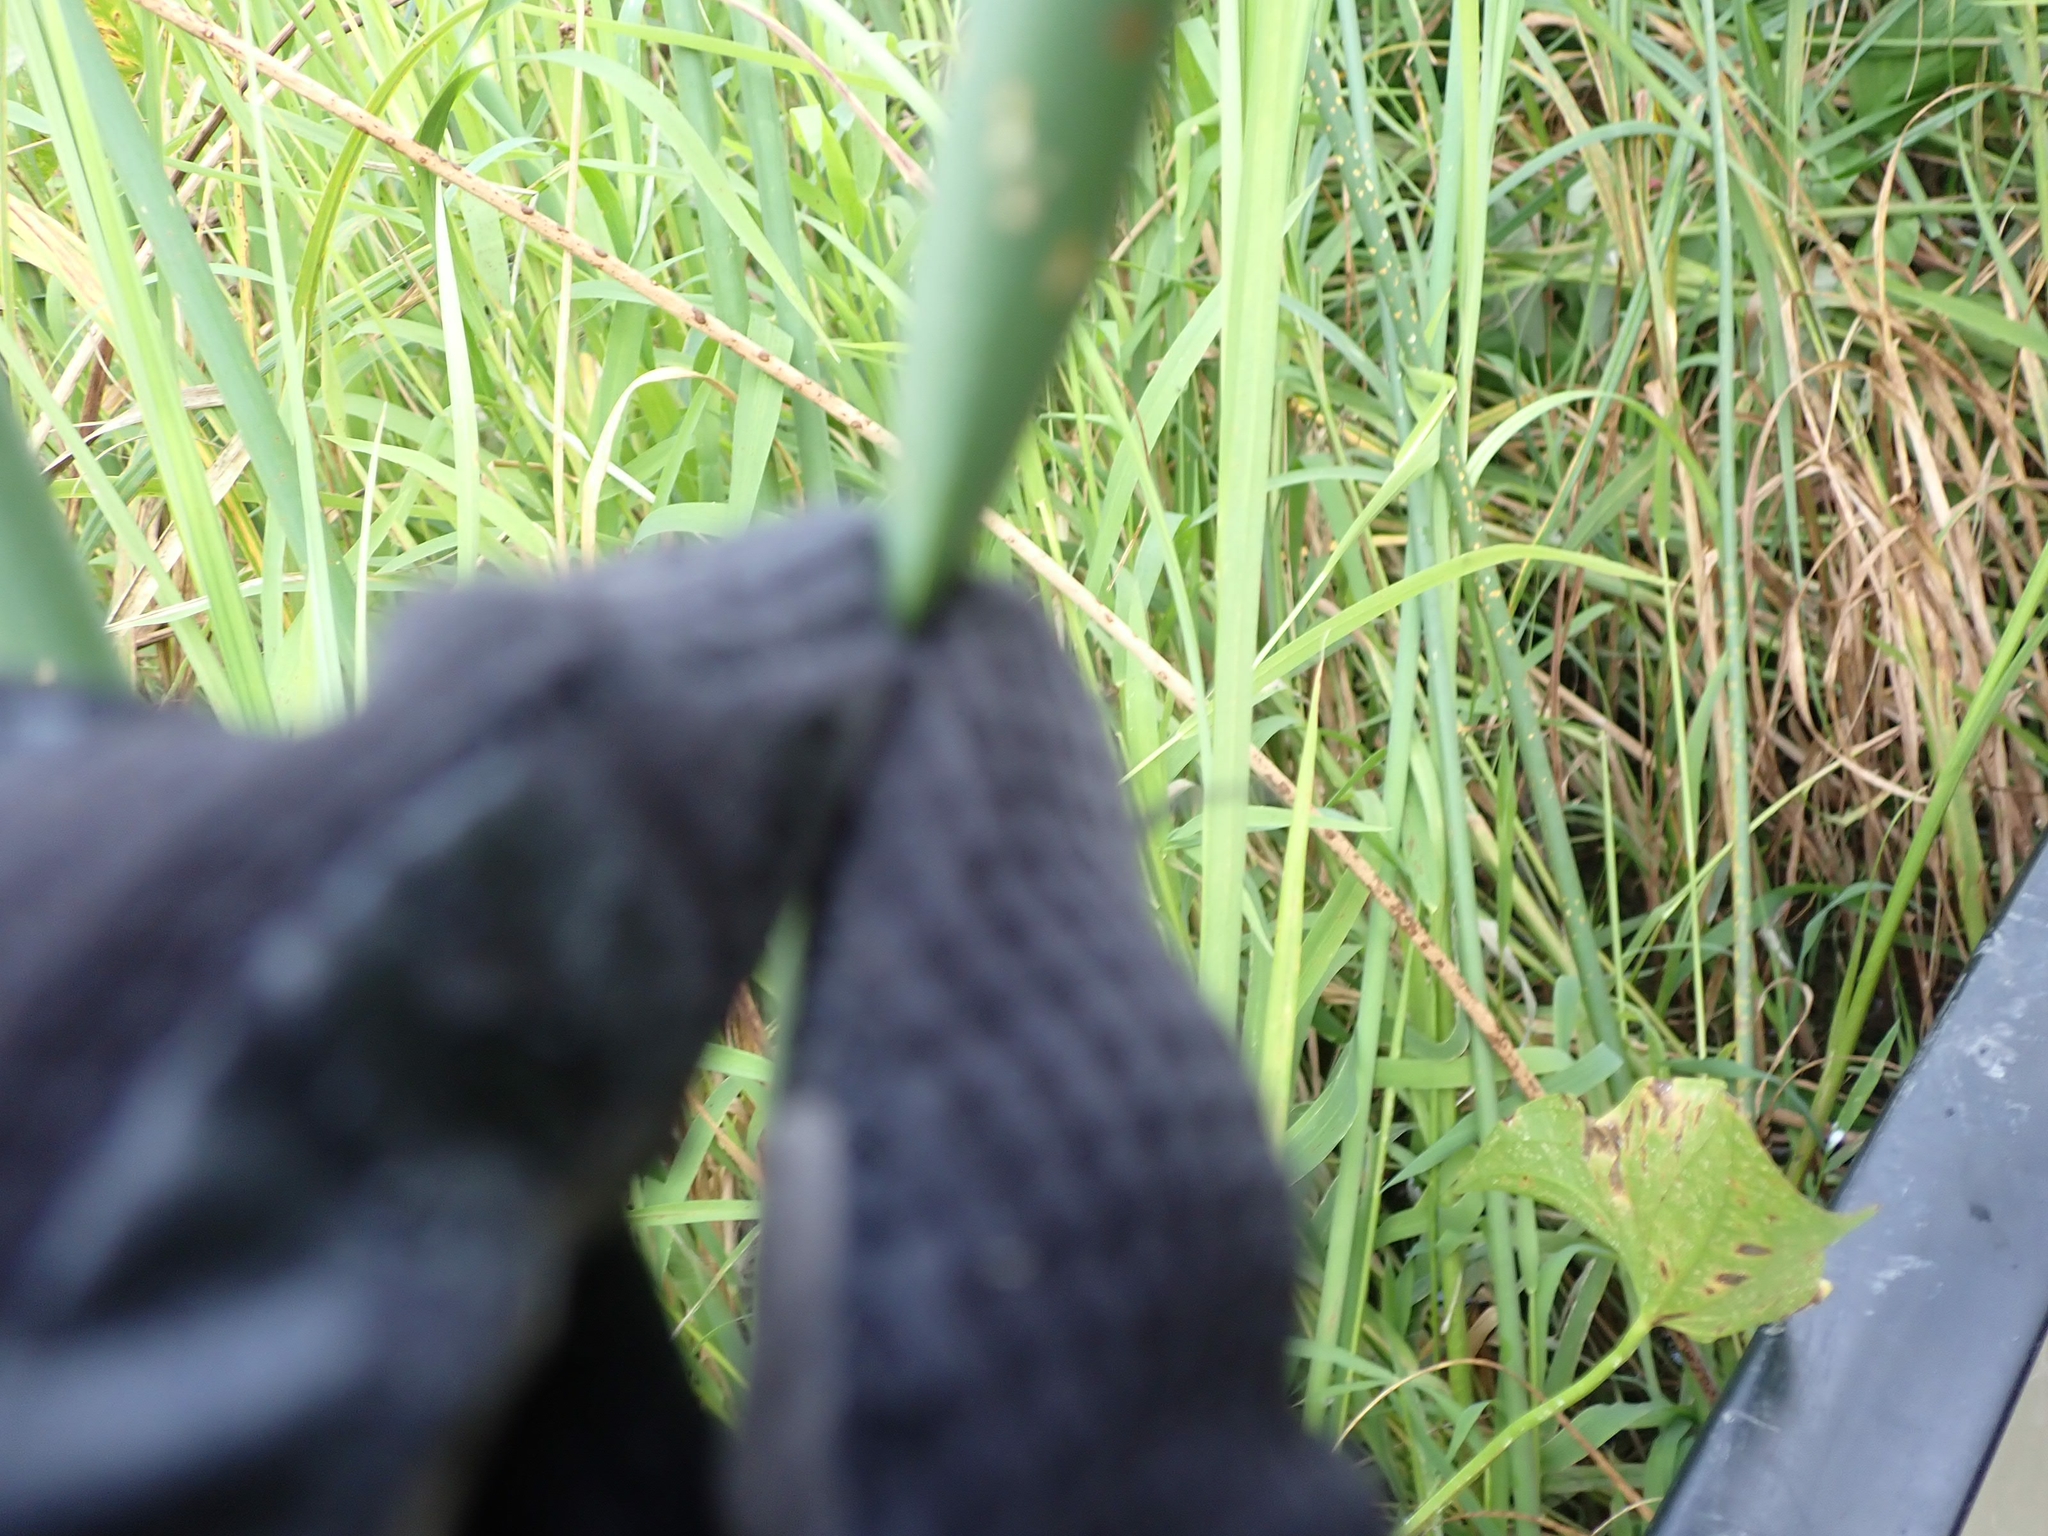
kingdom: Plantae
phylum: Tracheophyta
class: Liliopsida
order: Poales
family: Cyperaceae
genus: Schoenoplectus
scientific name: Schoenoplectus tabernaemontani
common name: Grey club-rush
